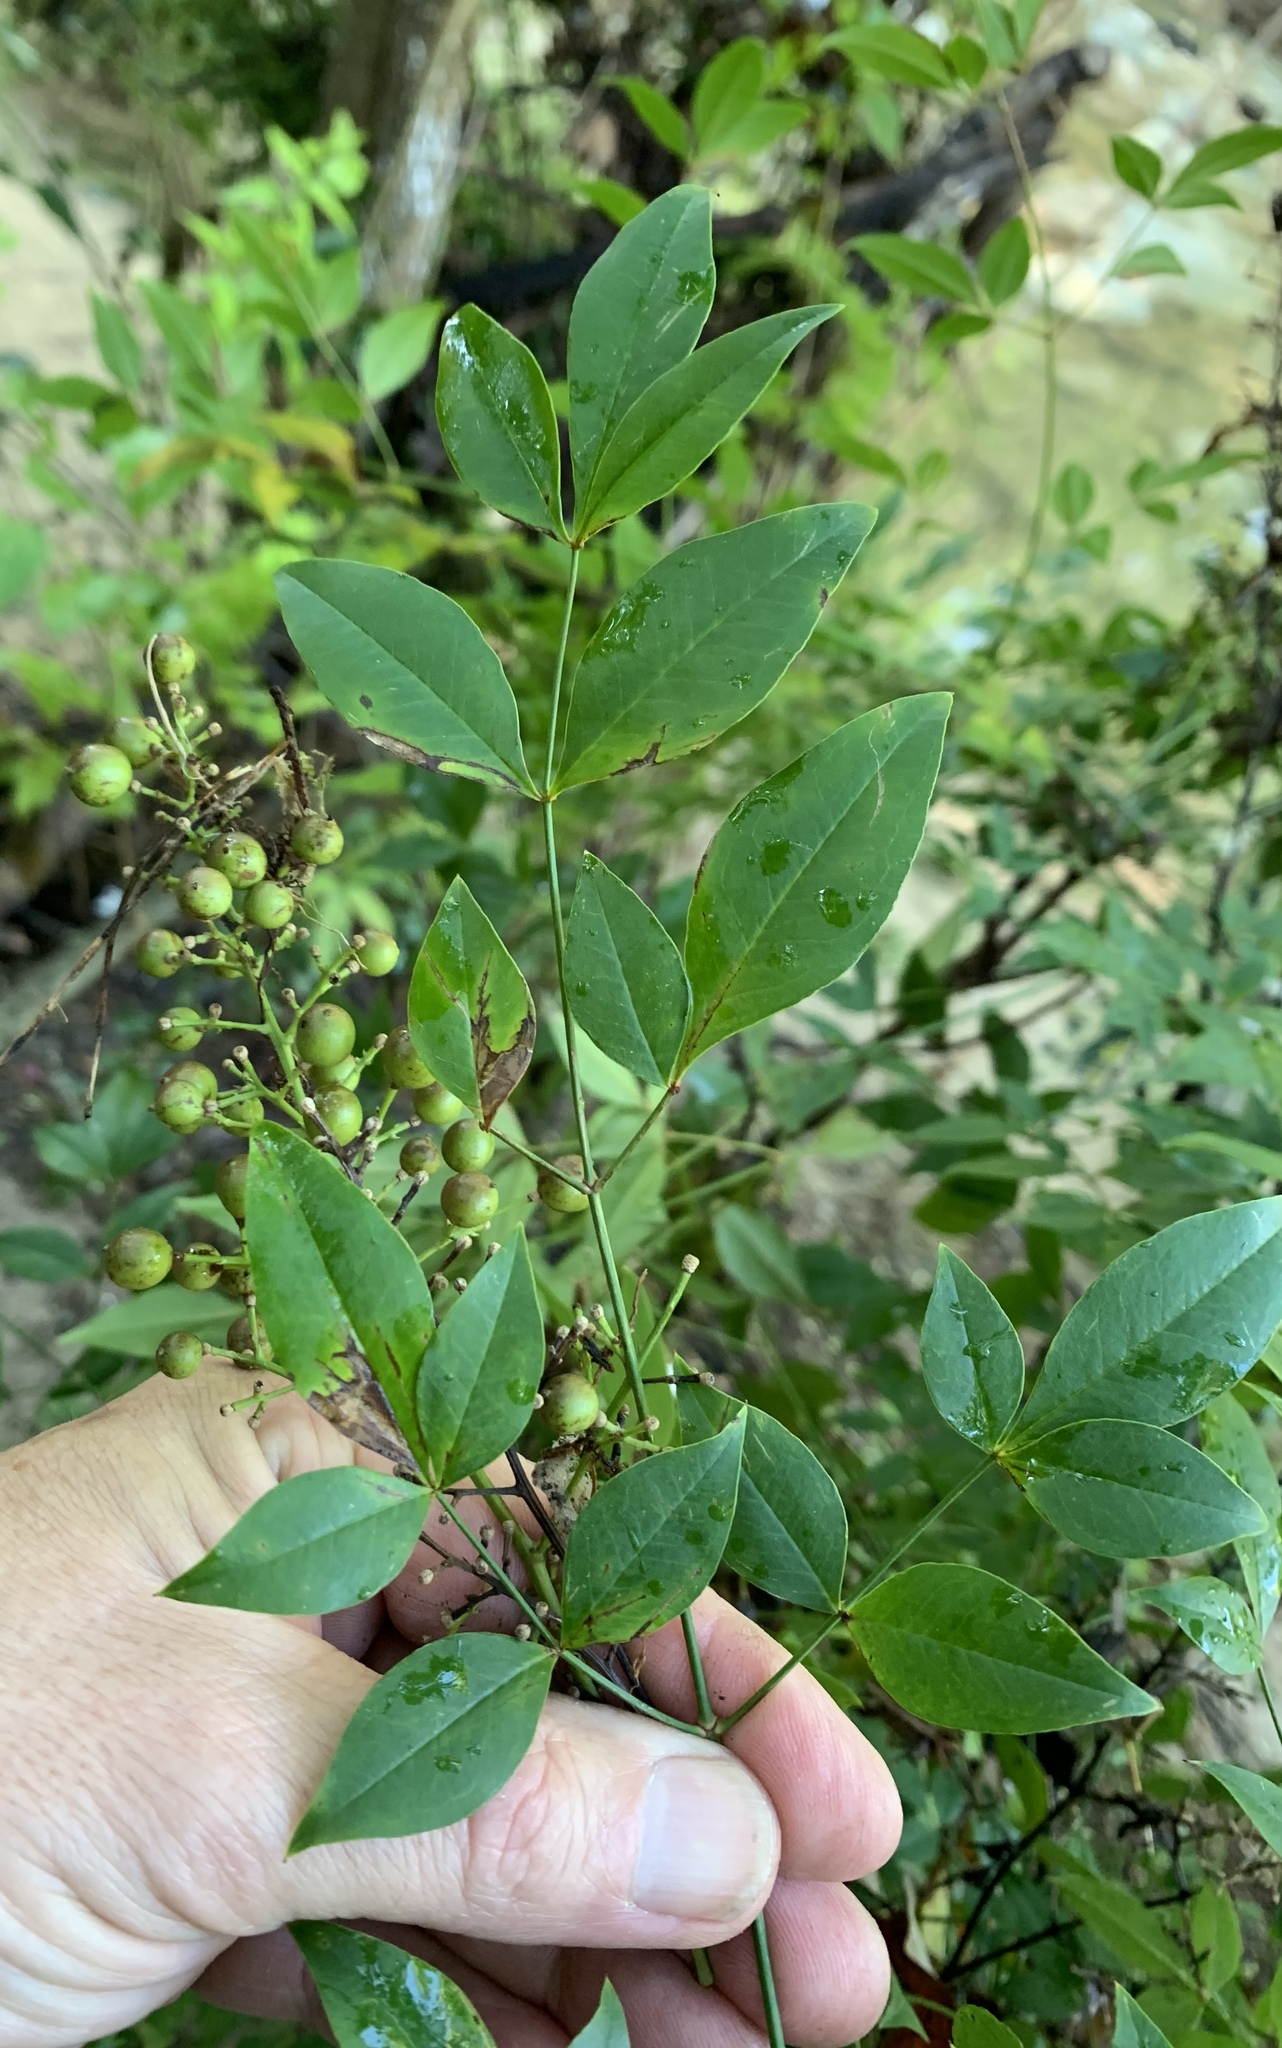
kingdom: Plantae
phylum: Tracheophyta
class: Magnoliopsida
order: Ranunculales
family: Berberidaceae
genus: Nandina
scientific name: Nandina domestica
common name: Sacred bamboo
